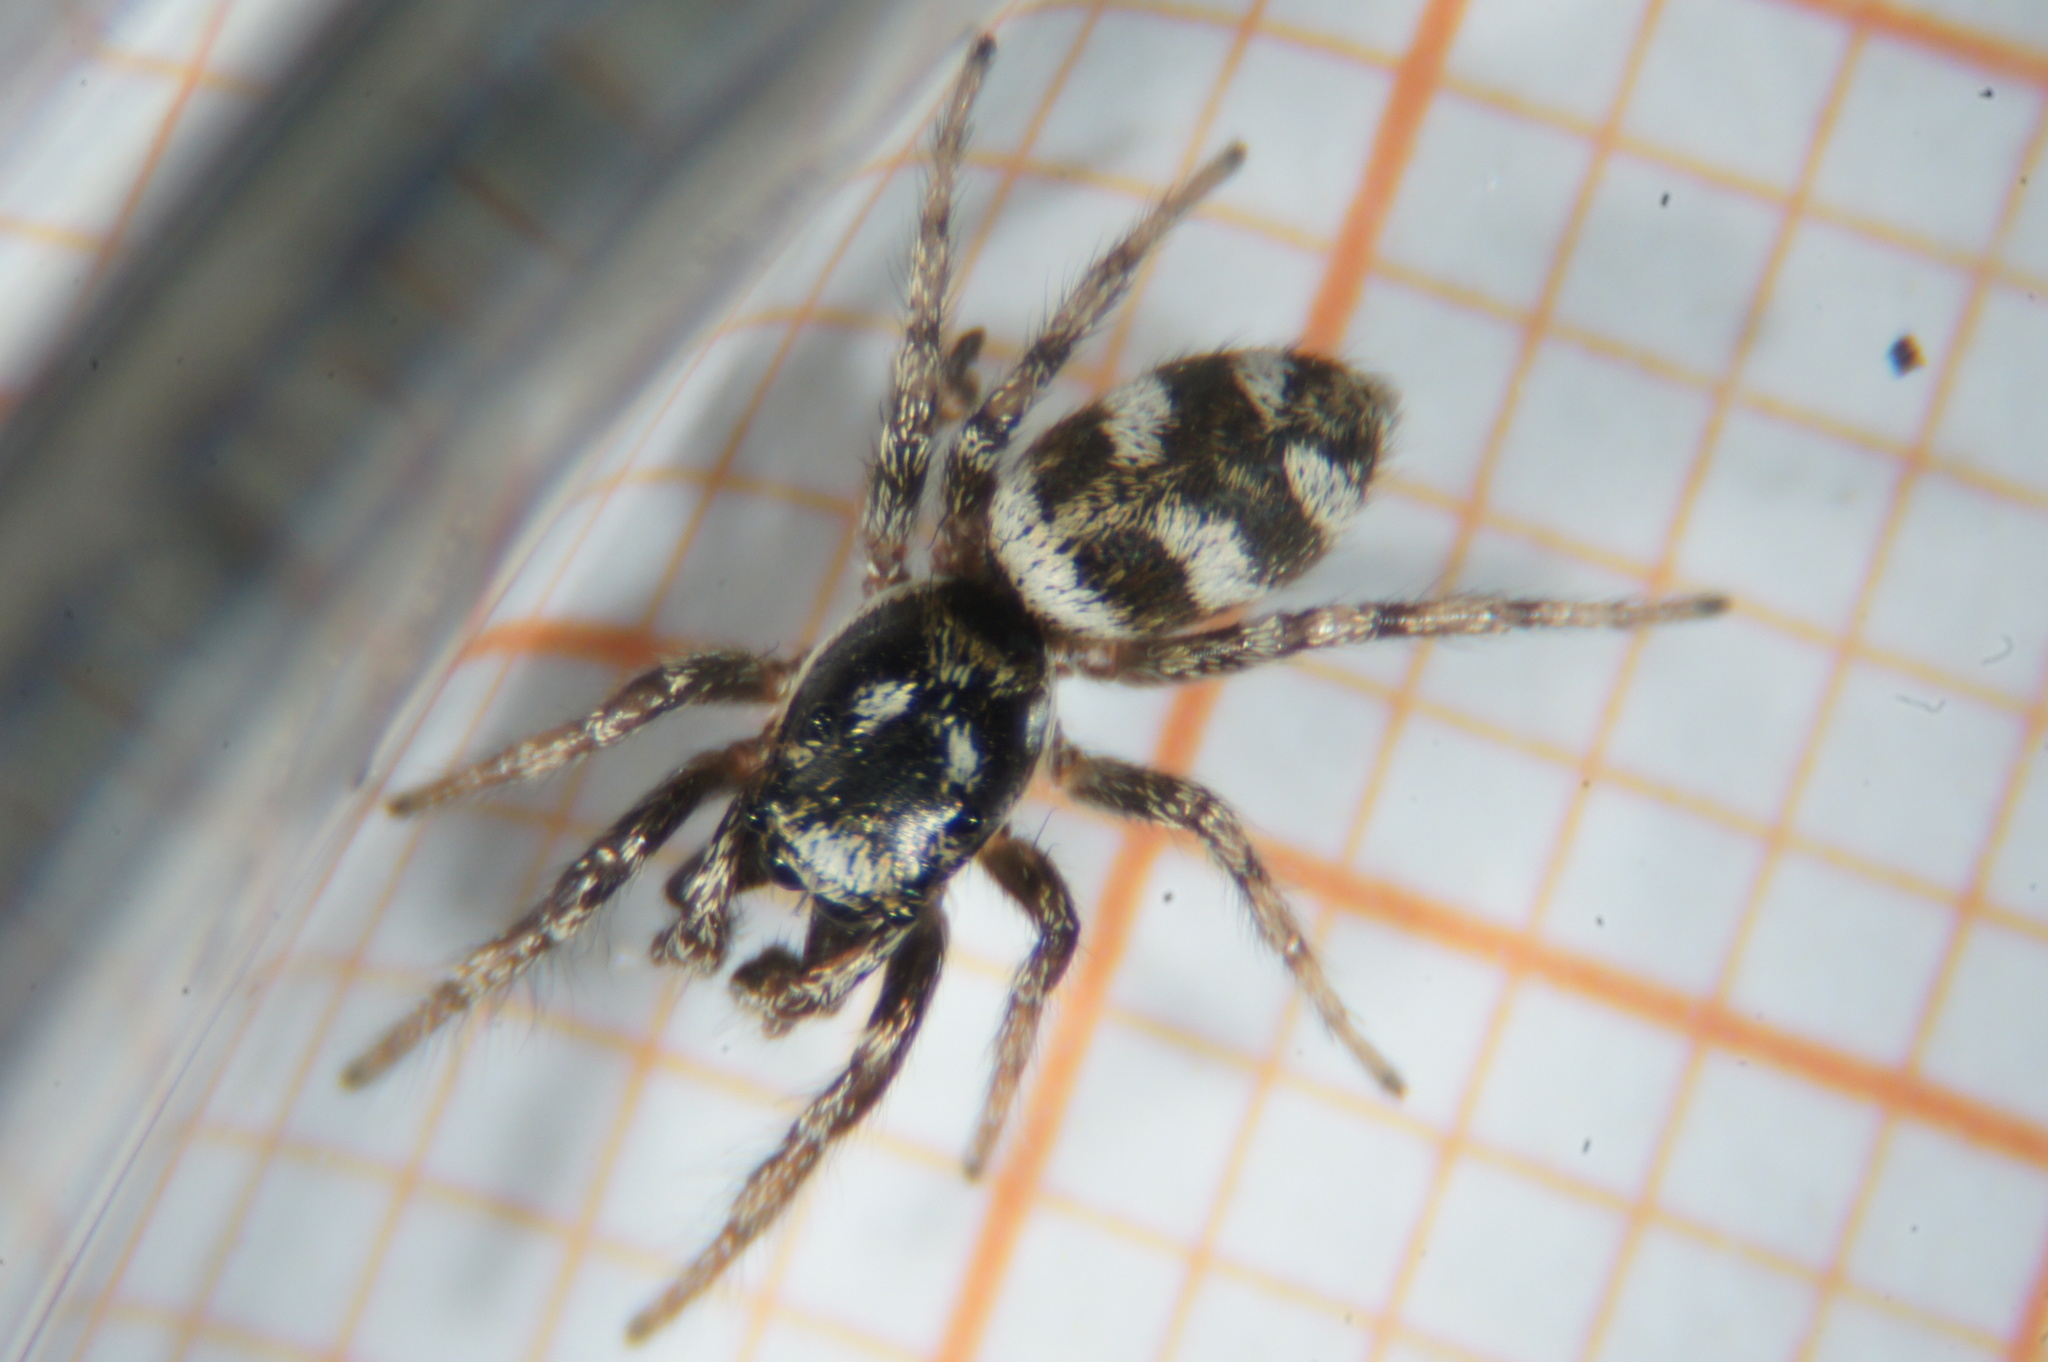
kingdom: Animalia
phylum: Arthropoda
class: Arachnida
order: Araneae
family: Salticidae
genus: Salticus
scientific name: Salticus scenicus
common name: Zebra jumper
